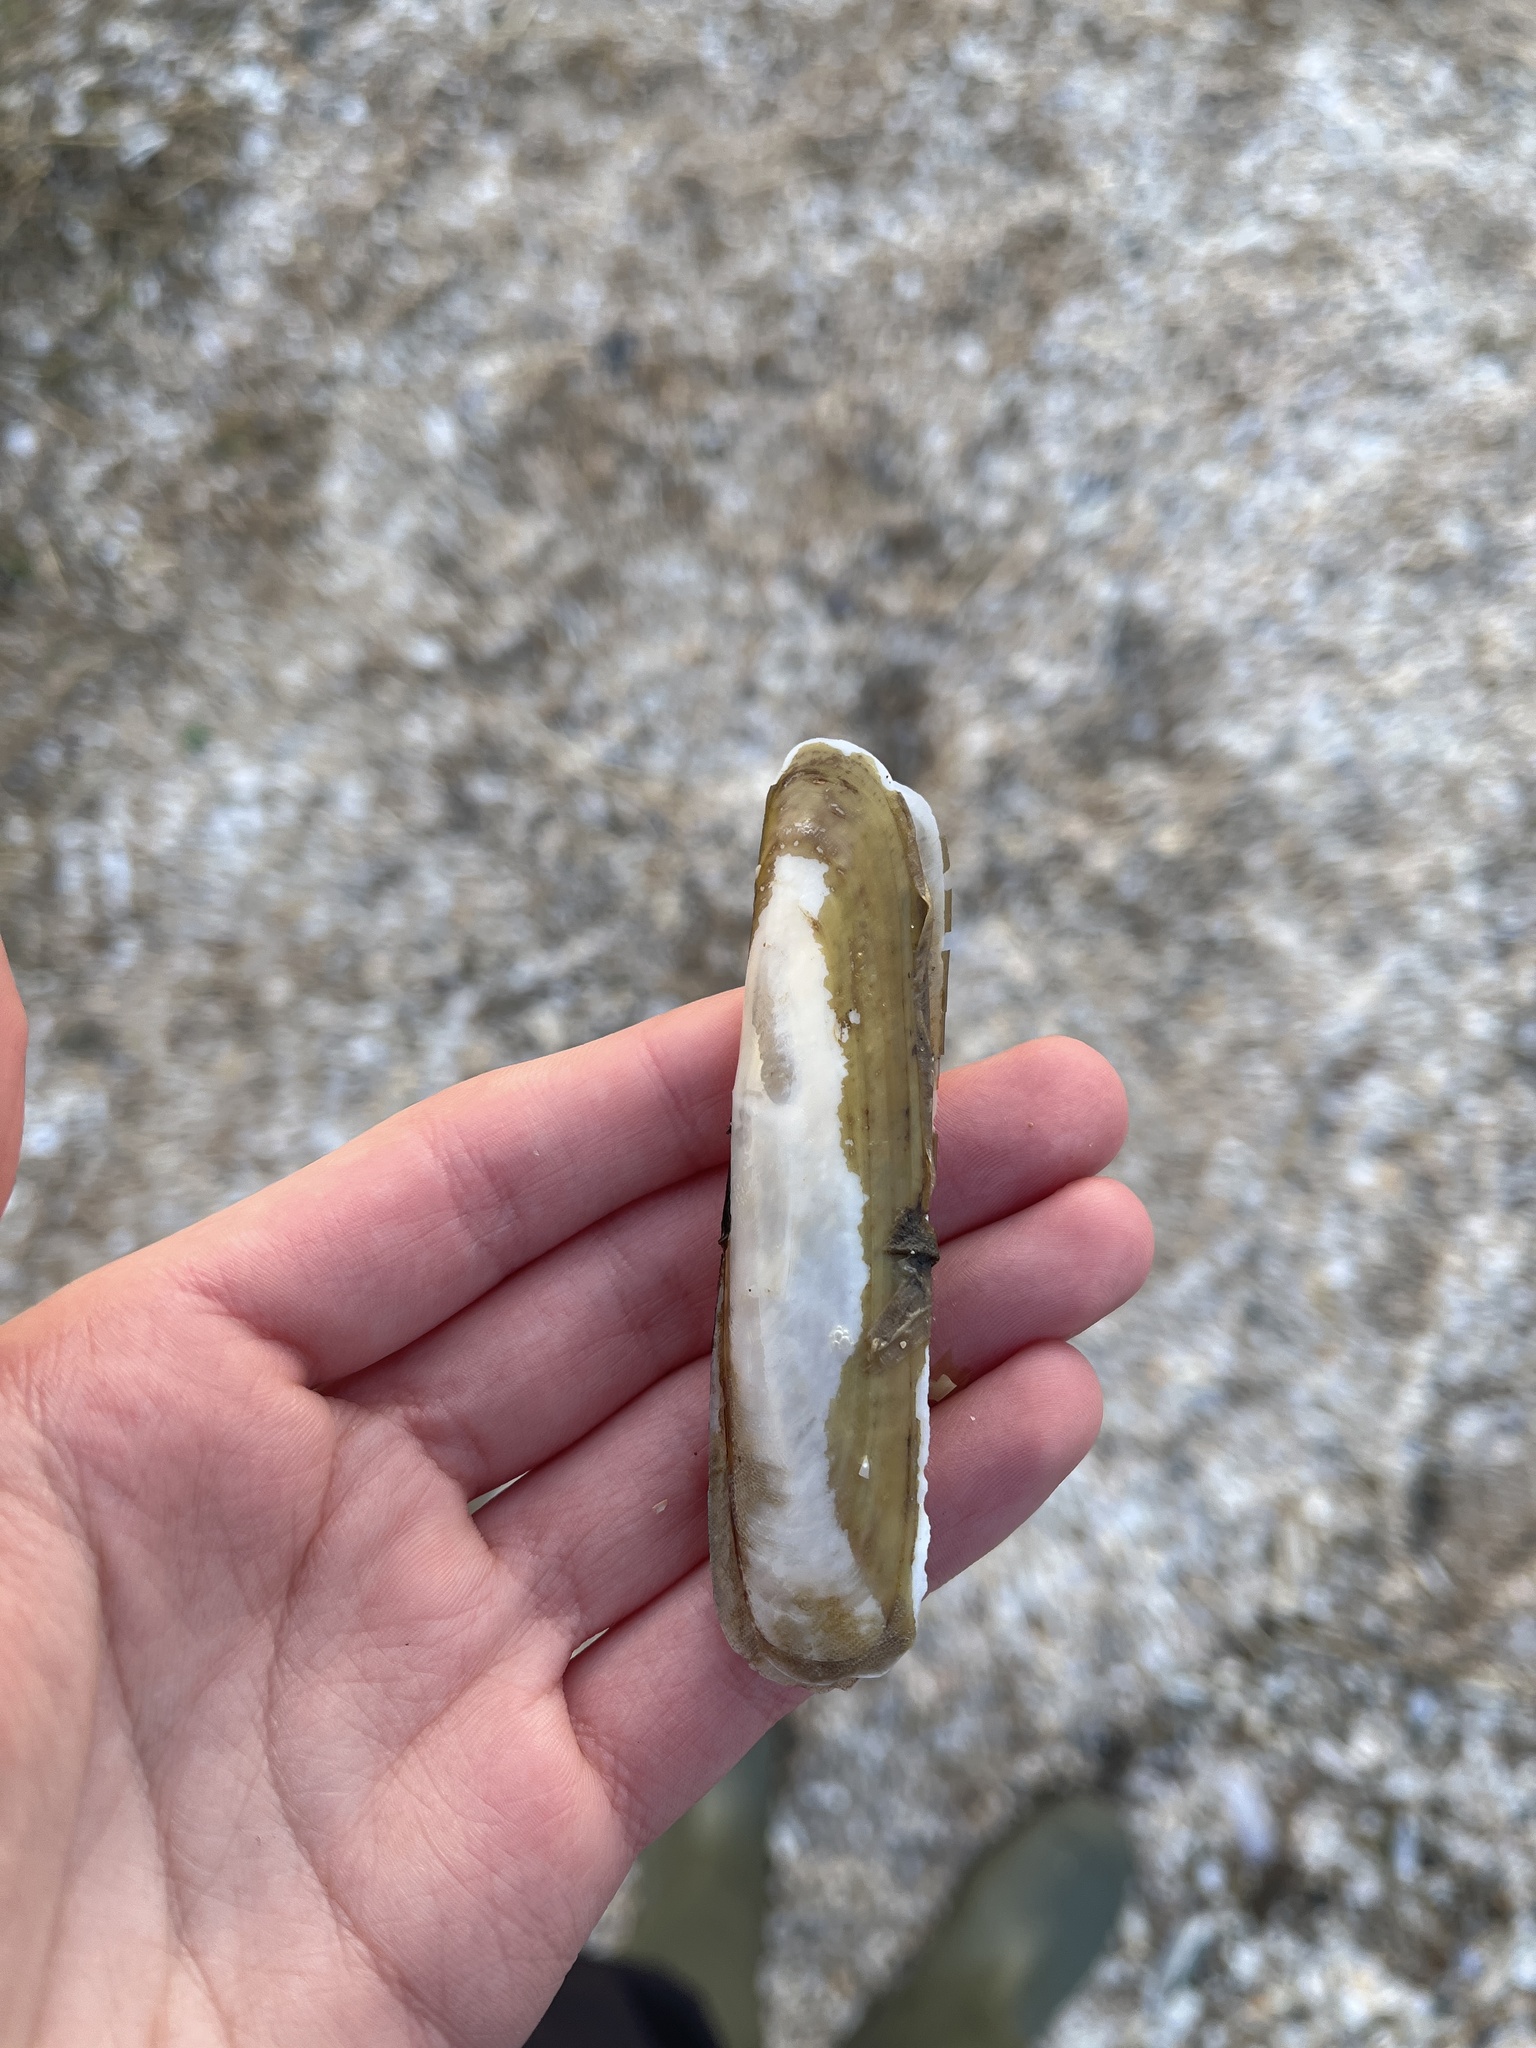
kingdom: Animalia
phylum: Mollusca
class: Bivalvia
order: Adapedonta
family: Pharidae
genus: Pharus
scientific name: Pharus legumen
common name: Bean razor clam
